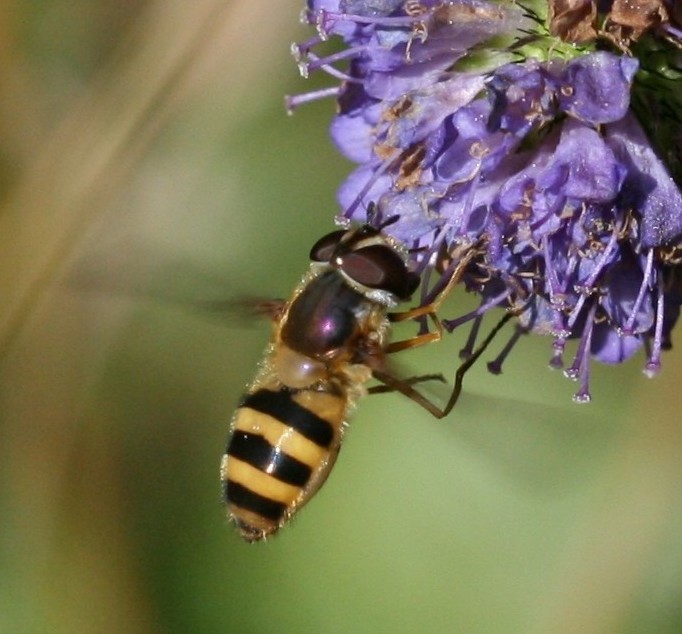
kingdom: Animalia
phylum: Arthropoda
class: Insecta
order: Diptera
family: Syrphidae
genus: Epistrophe
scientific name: Epistrophe grossulariae
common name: Black-horned smoothtail
